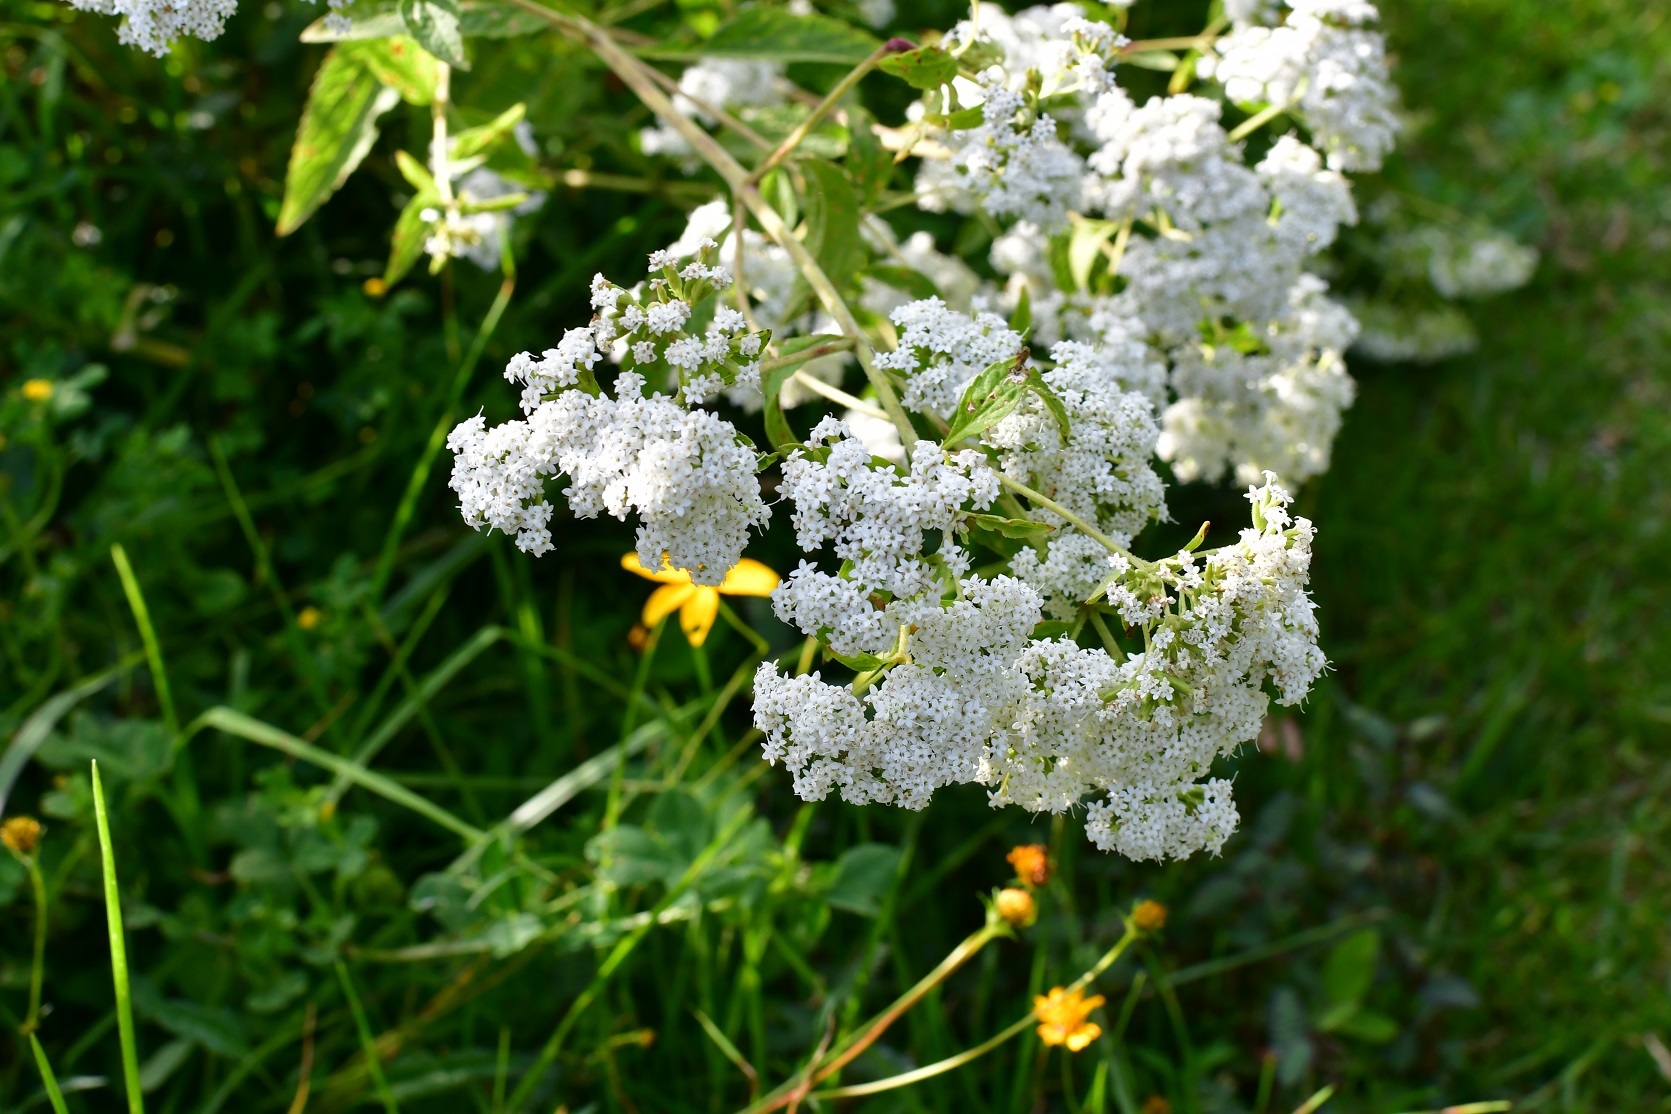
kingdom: Plantae
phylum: Tracheophyta
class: Magnoliopsida
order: Asterales
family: Asteraceae
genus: Stevia
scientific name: Stevia ovata
